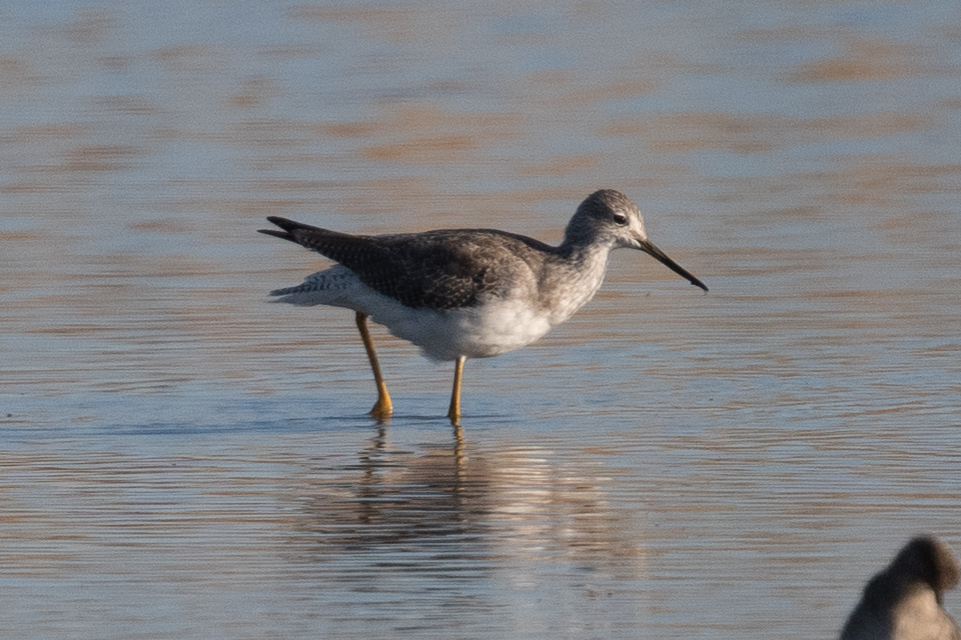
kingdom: Animalia
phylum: Chordata
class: Aves
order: Charadriiformes
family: Scolopacidae
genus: Tringa
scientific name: Tringa melanoleuca
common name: Greater yellowlegs
